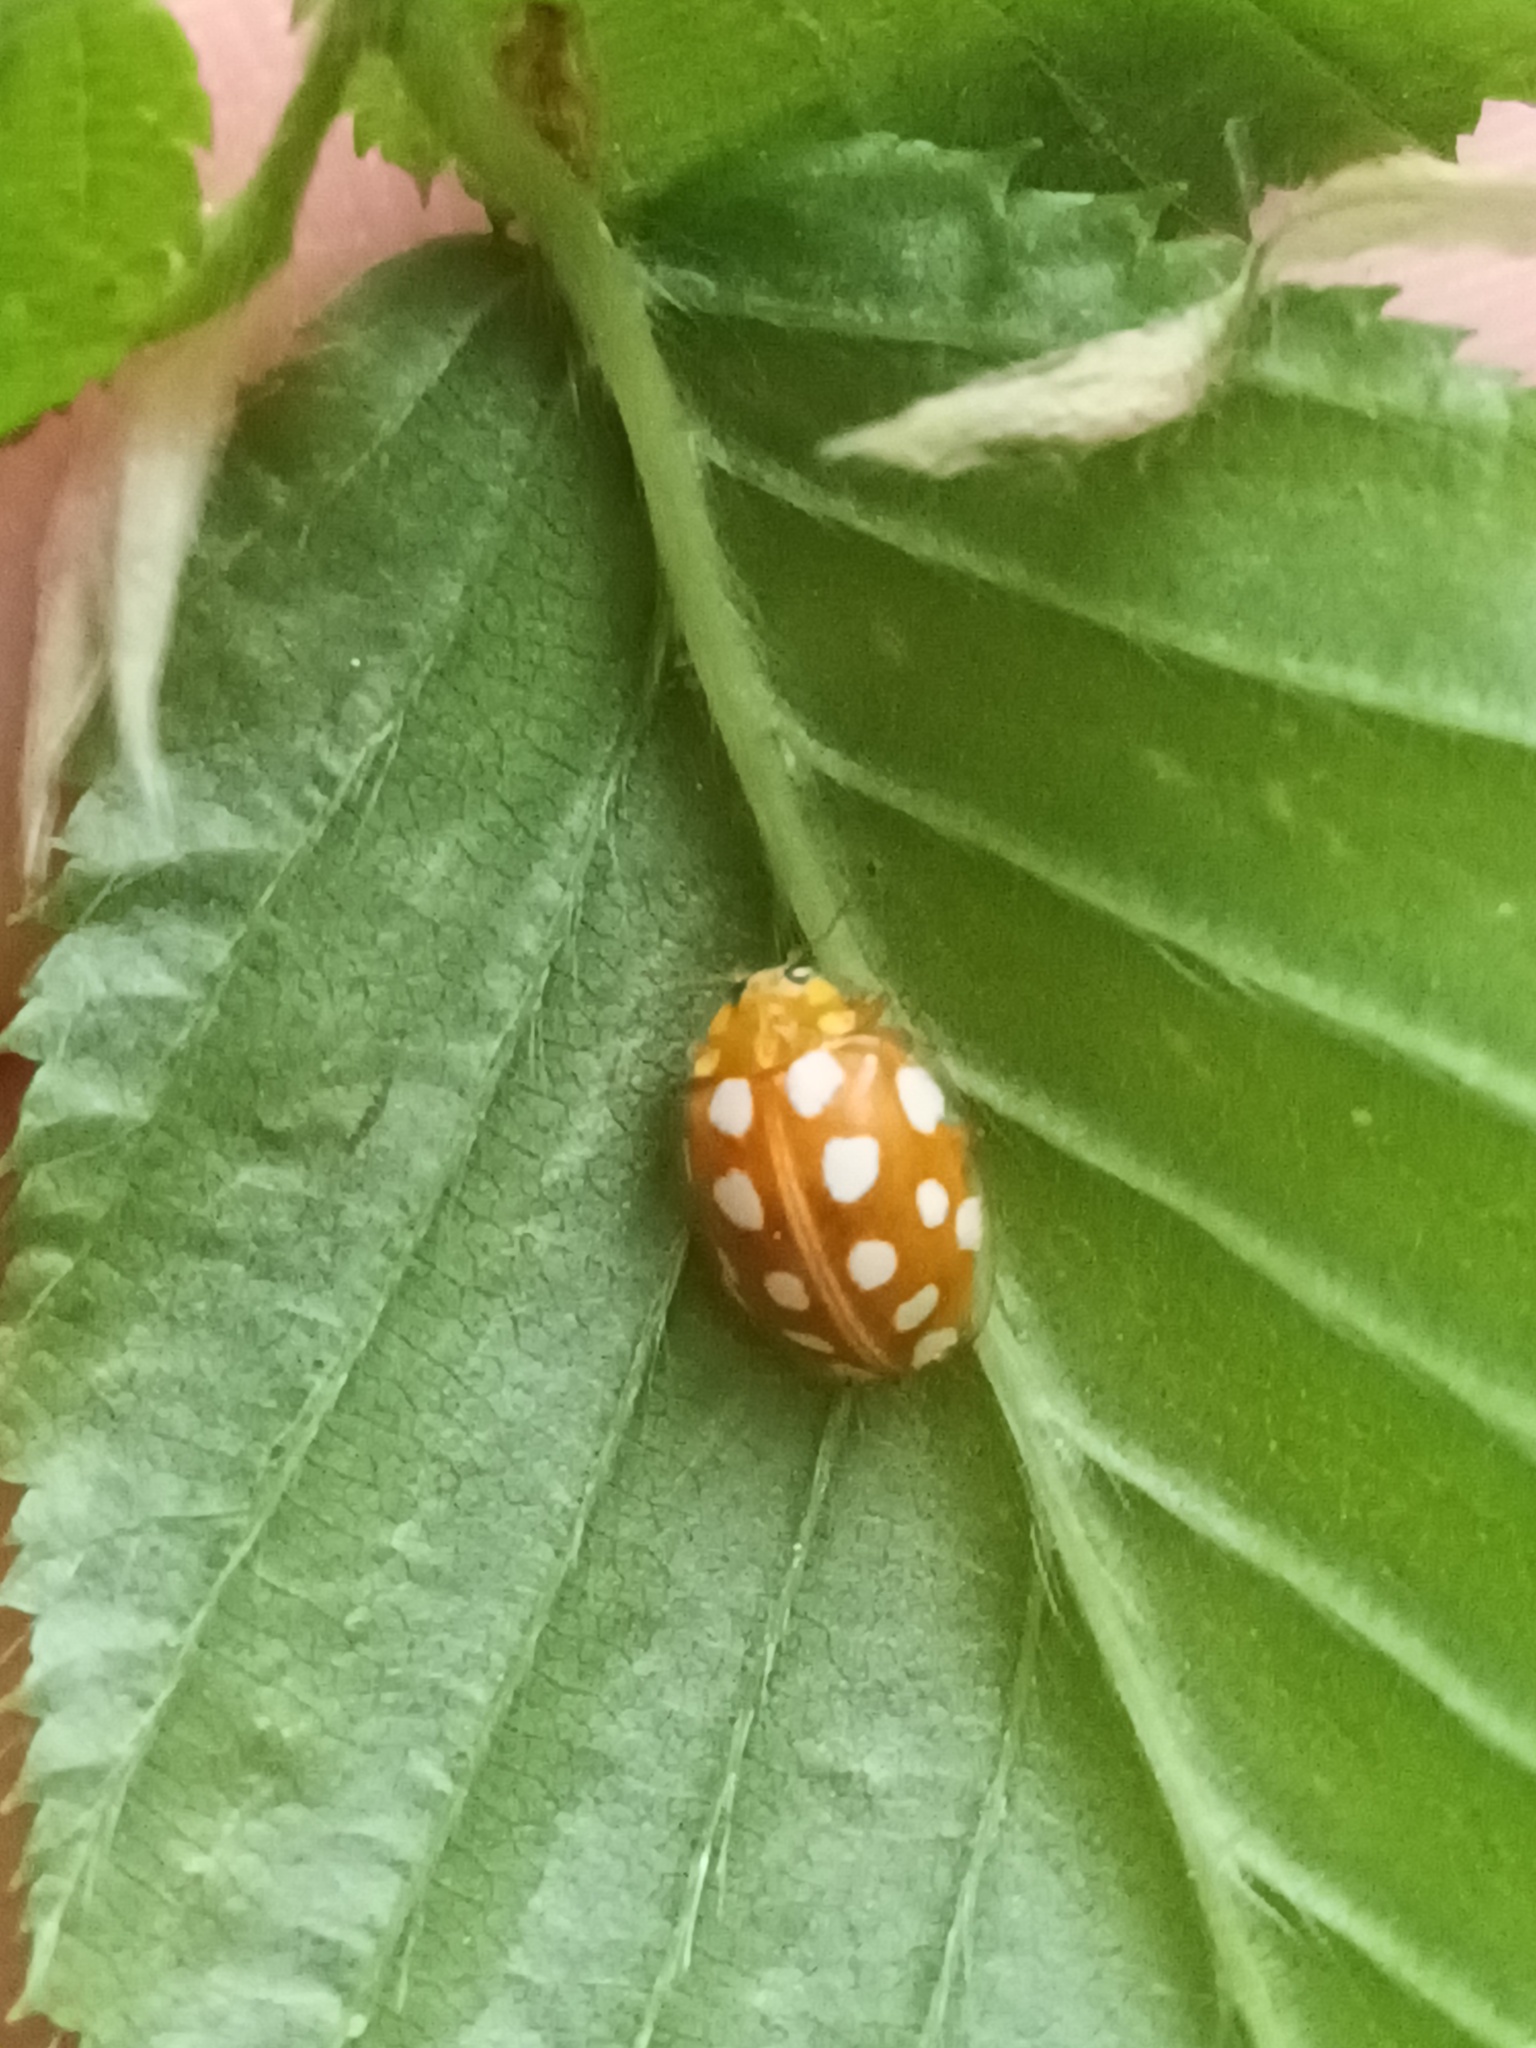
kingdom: Animalia
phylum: Arthropoda
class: Insecta
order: Coleoptera
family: Coccinellidae
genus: Halyzia
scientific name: Halyzia sedecimguttata
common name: Orange ladybird
